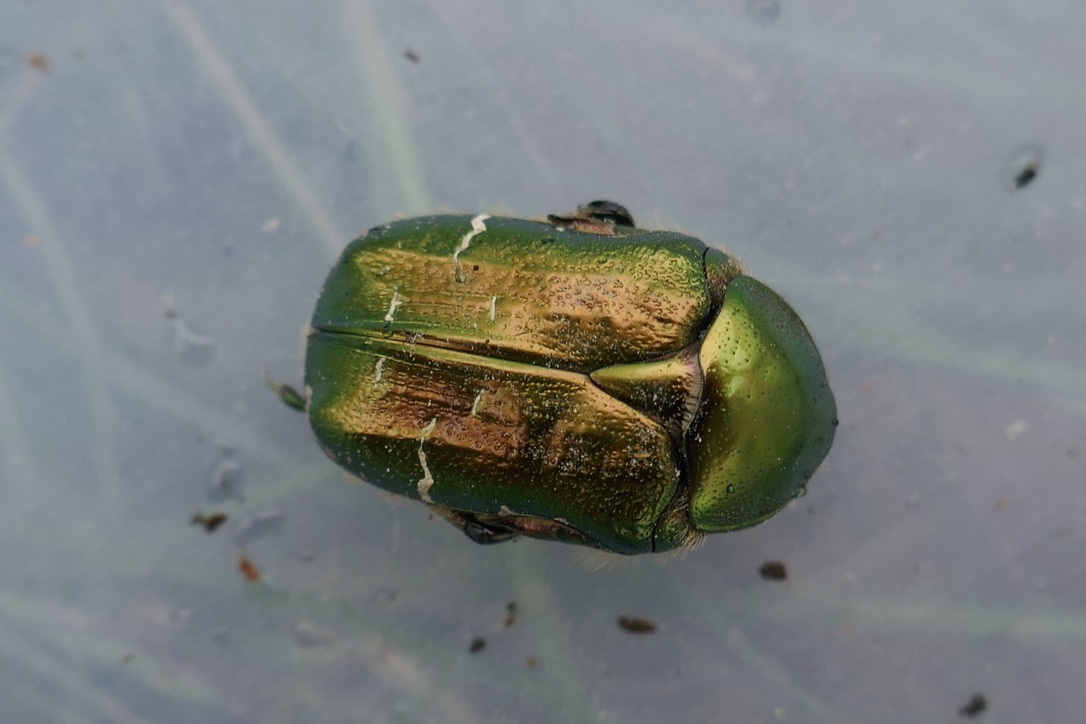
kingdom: Animalia
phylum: Arthropoda
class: Insecta
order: Coleoptera
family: Scarabaeidae
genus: Cetonia
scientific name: Cetonia aurata
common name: Rose chafer
